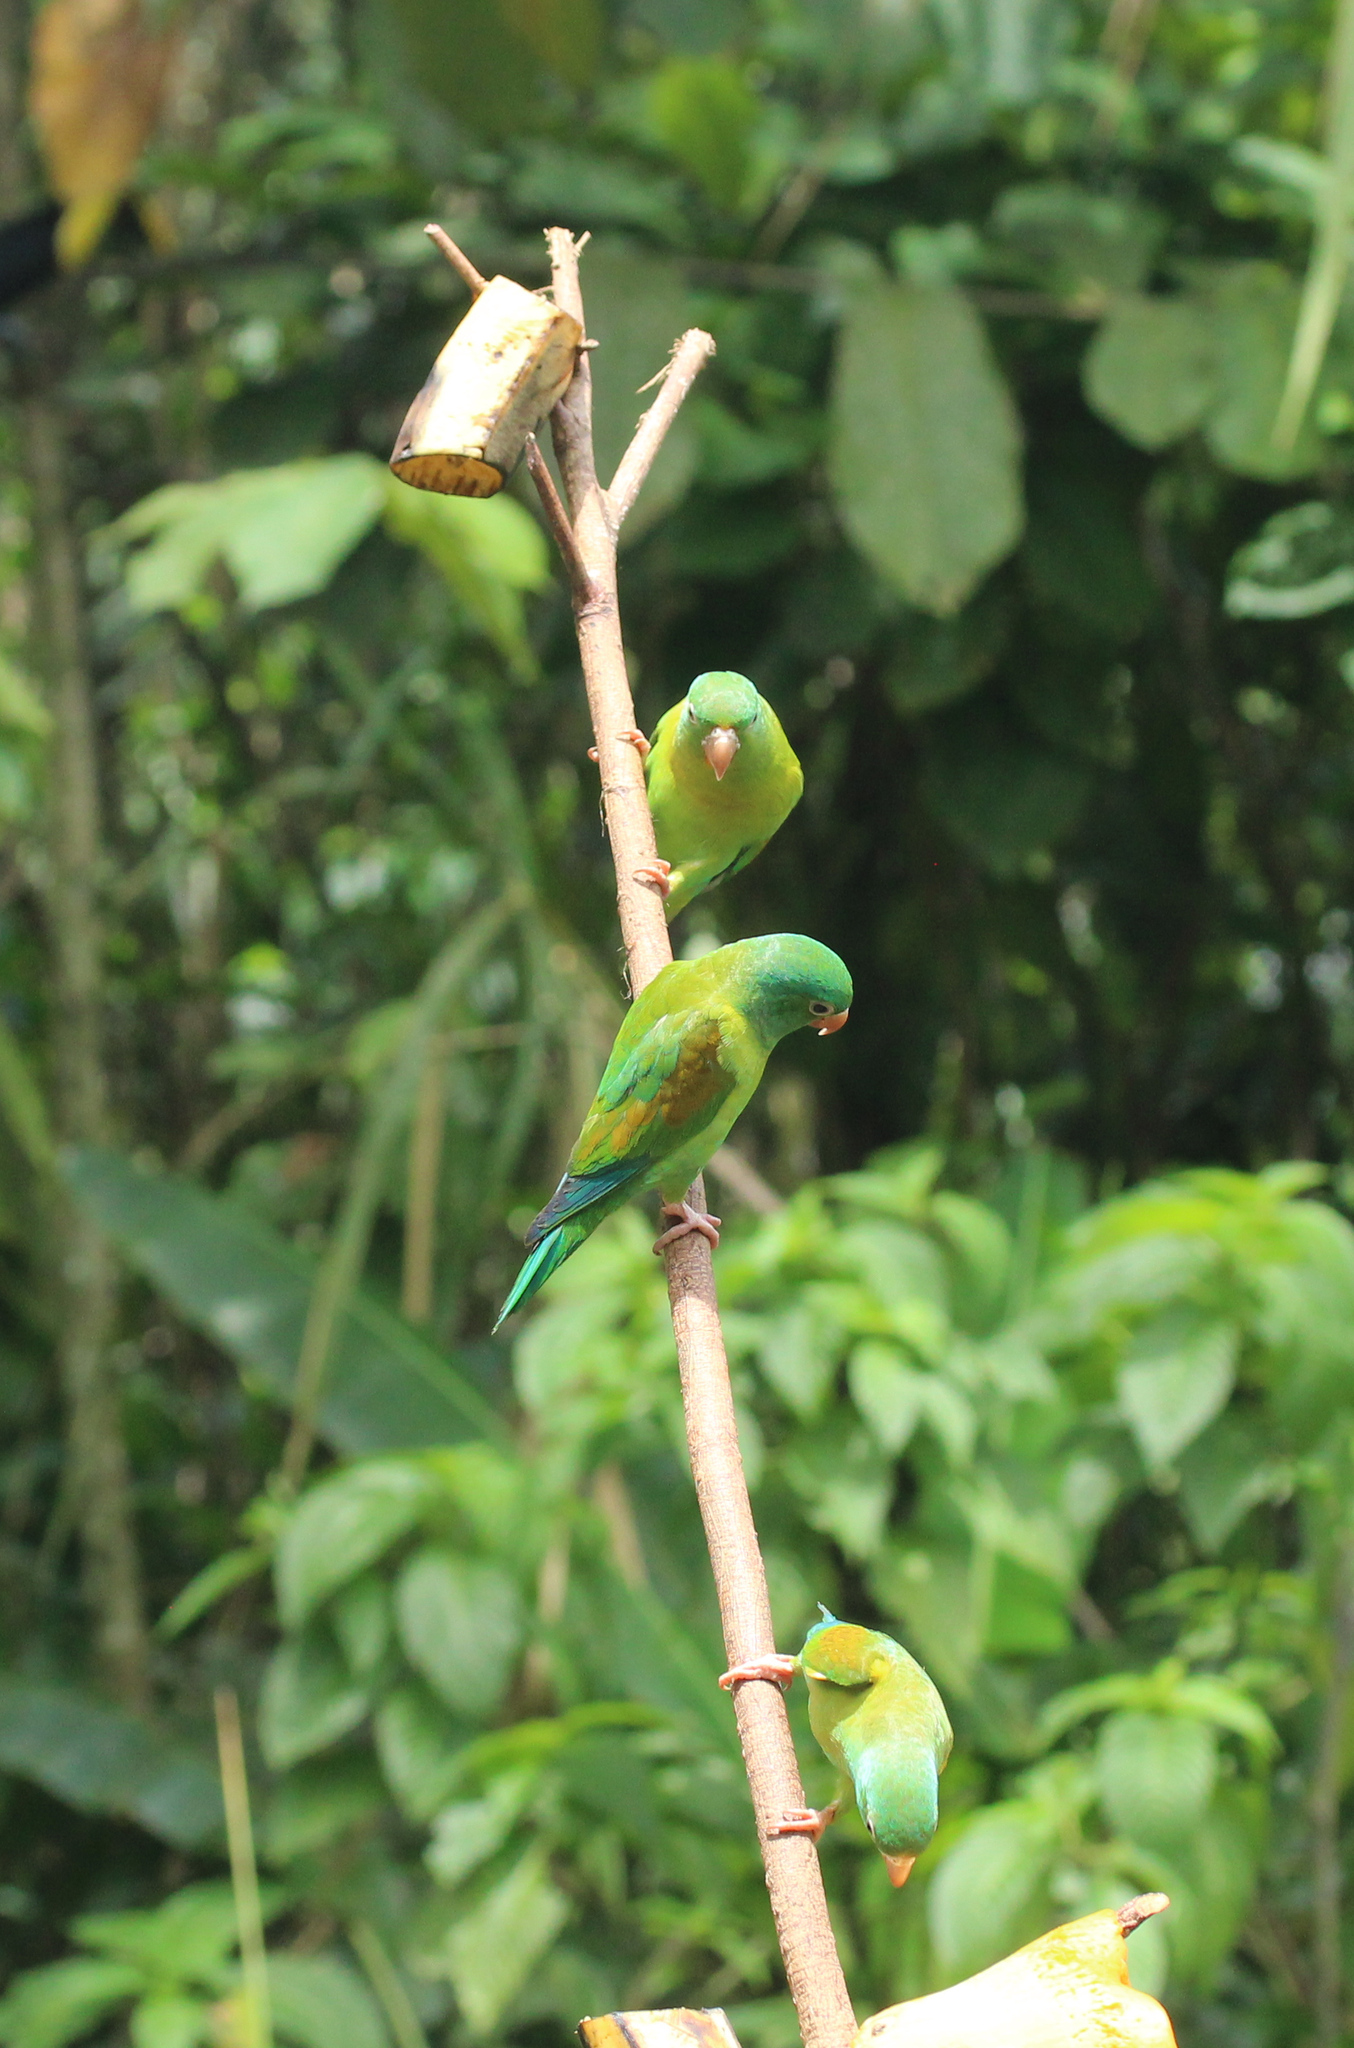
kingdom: Animalia
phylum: Chordata
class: Aves
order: Psittaciformes
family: Psittacidae
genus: Brotogeris
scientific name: Brotogeris jugularis
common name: Orange-chinned parakeet
